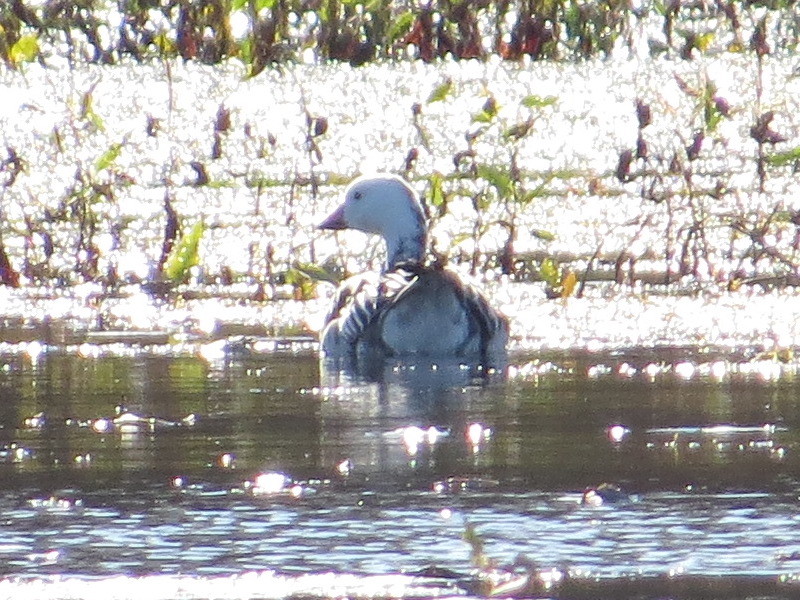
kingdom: Animalia
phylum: Chordata
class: Aves
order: Anseriformes
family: Anatidae
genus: Anser
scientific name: Anser caerulescens
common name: Snow goose
